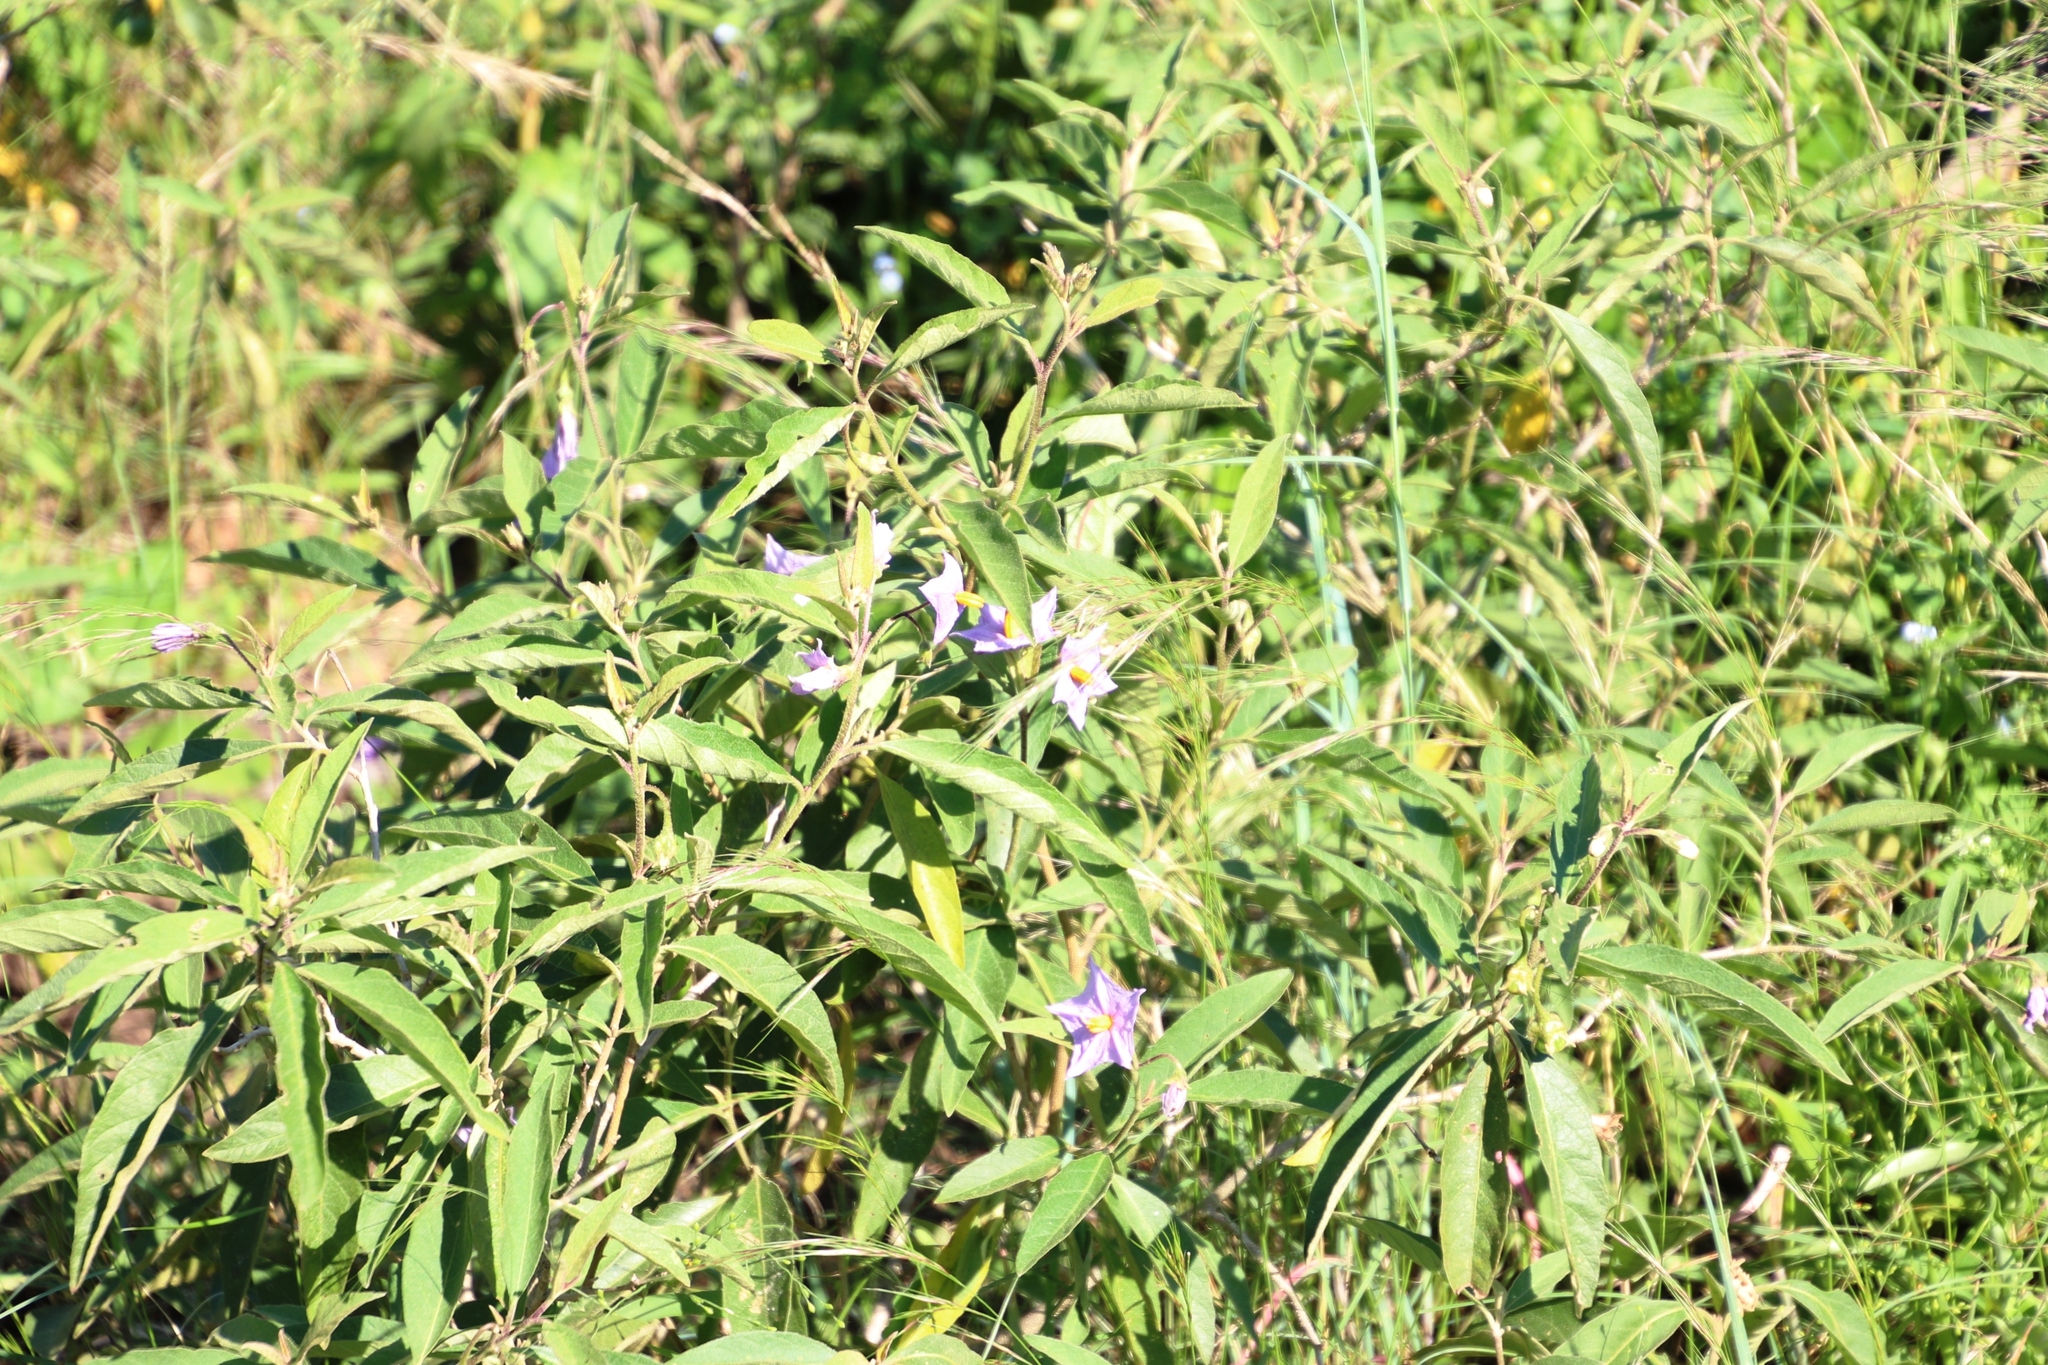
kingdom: Plantae
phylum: Tracheophyta
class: Magnoliopsida
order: Solanales
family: Solanaceae
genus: Solanum
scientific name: Solanum campylacanthum
